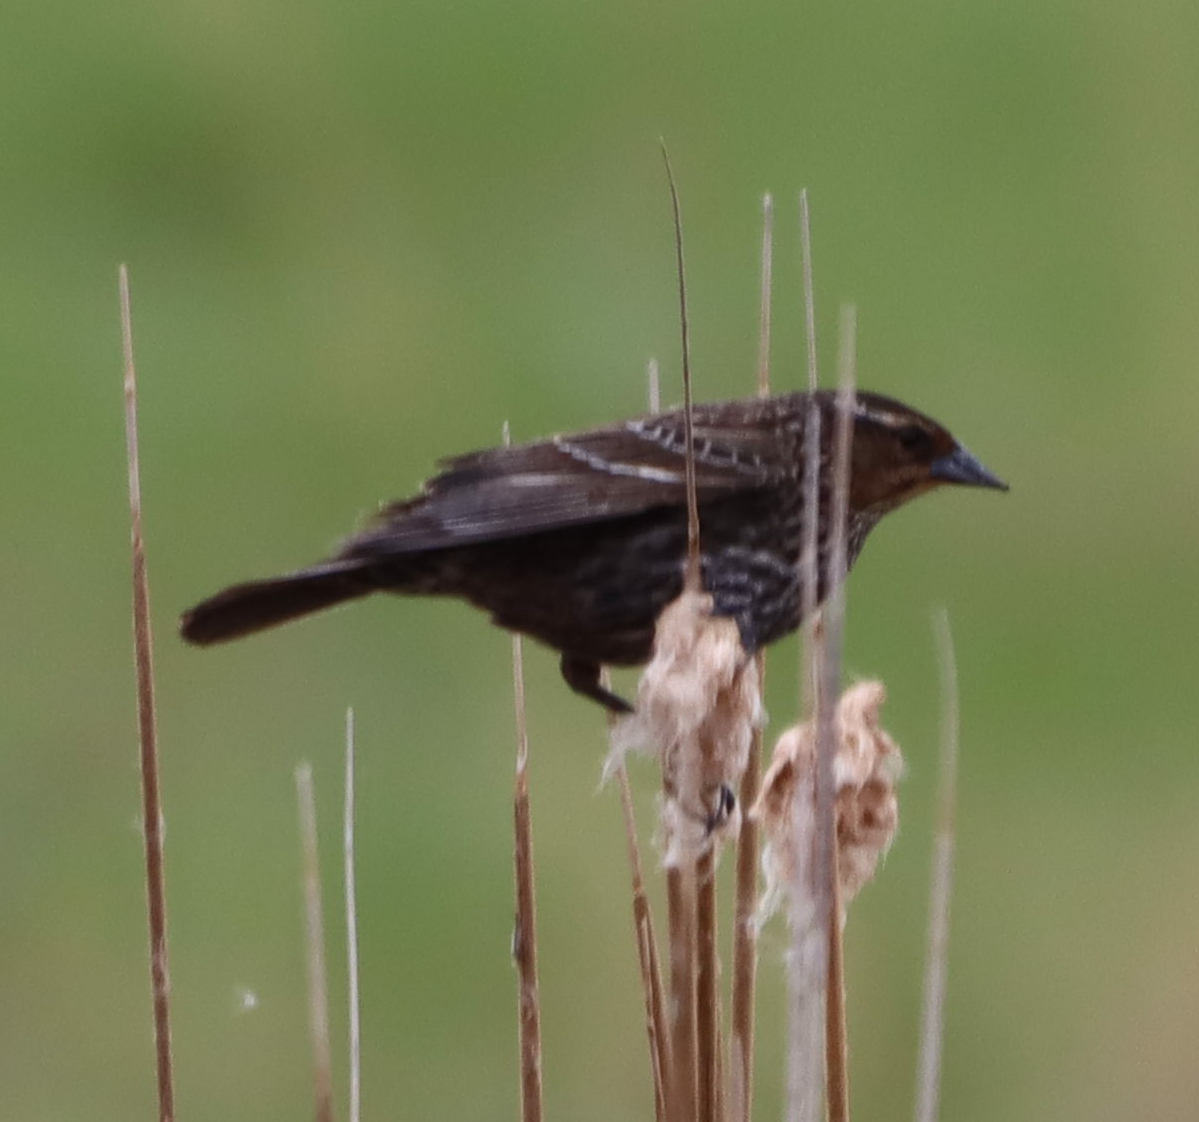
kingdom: Animalia
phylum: Chordata
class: Aves
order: Passeriformes
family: Icteridae
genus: Agelaius
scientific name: Agelaius phoeniceus
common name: Red-winged blackbird
